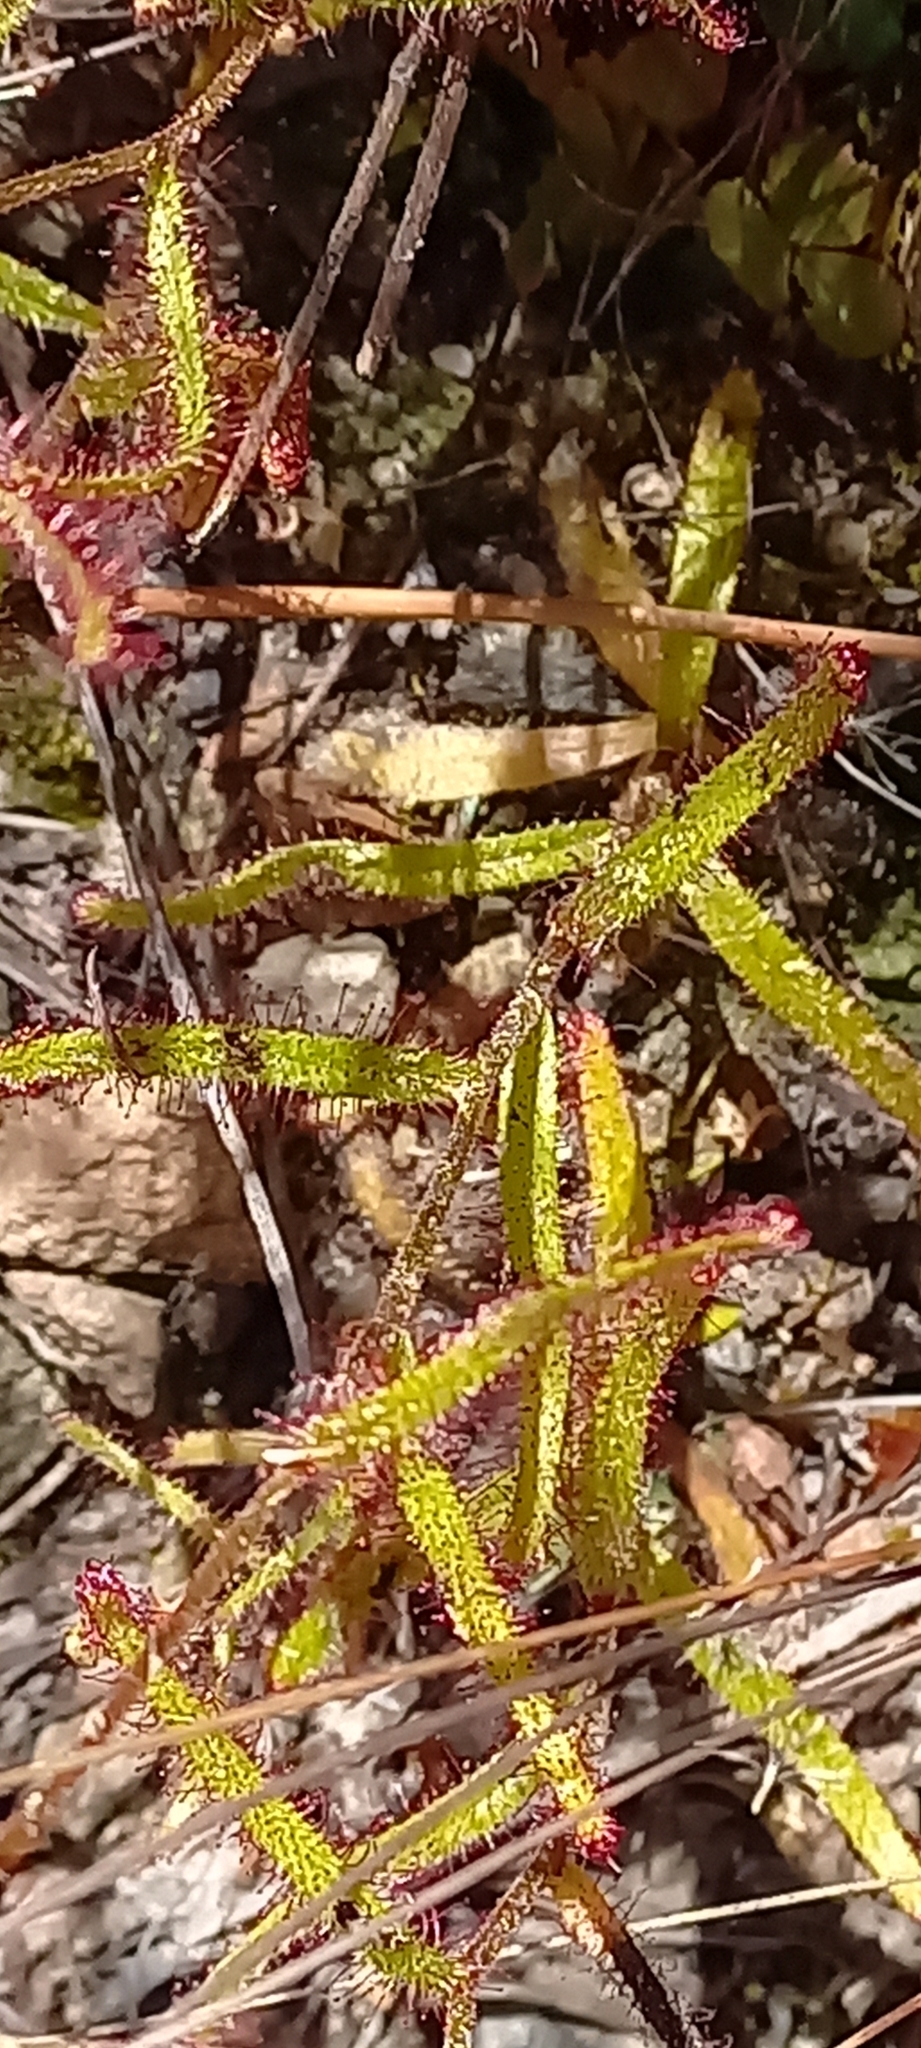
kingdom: Plantae
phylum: Tracheophyta
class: Magnoliopsida
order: Caryophyllales
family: Droseraceae
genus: Drosera
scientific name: Drosera liniflora
